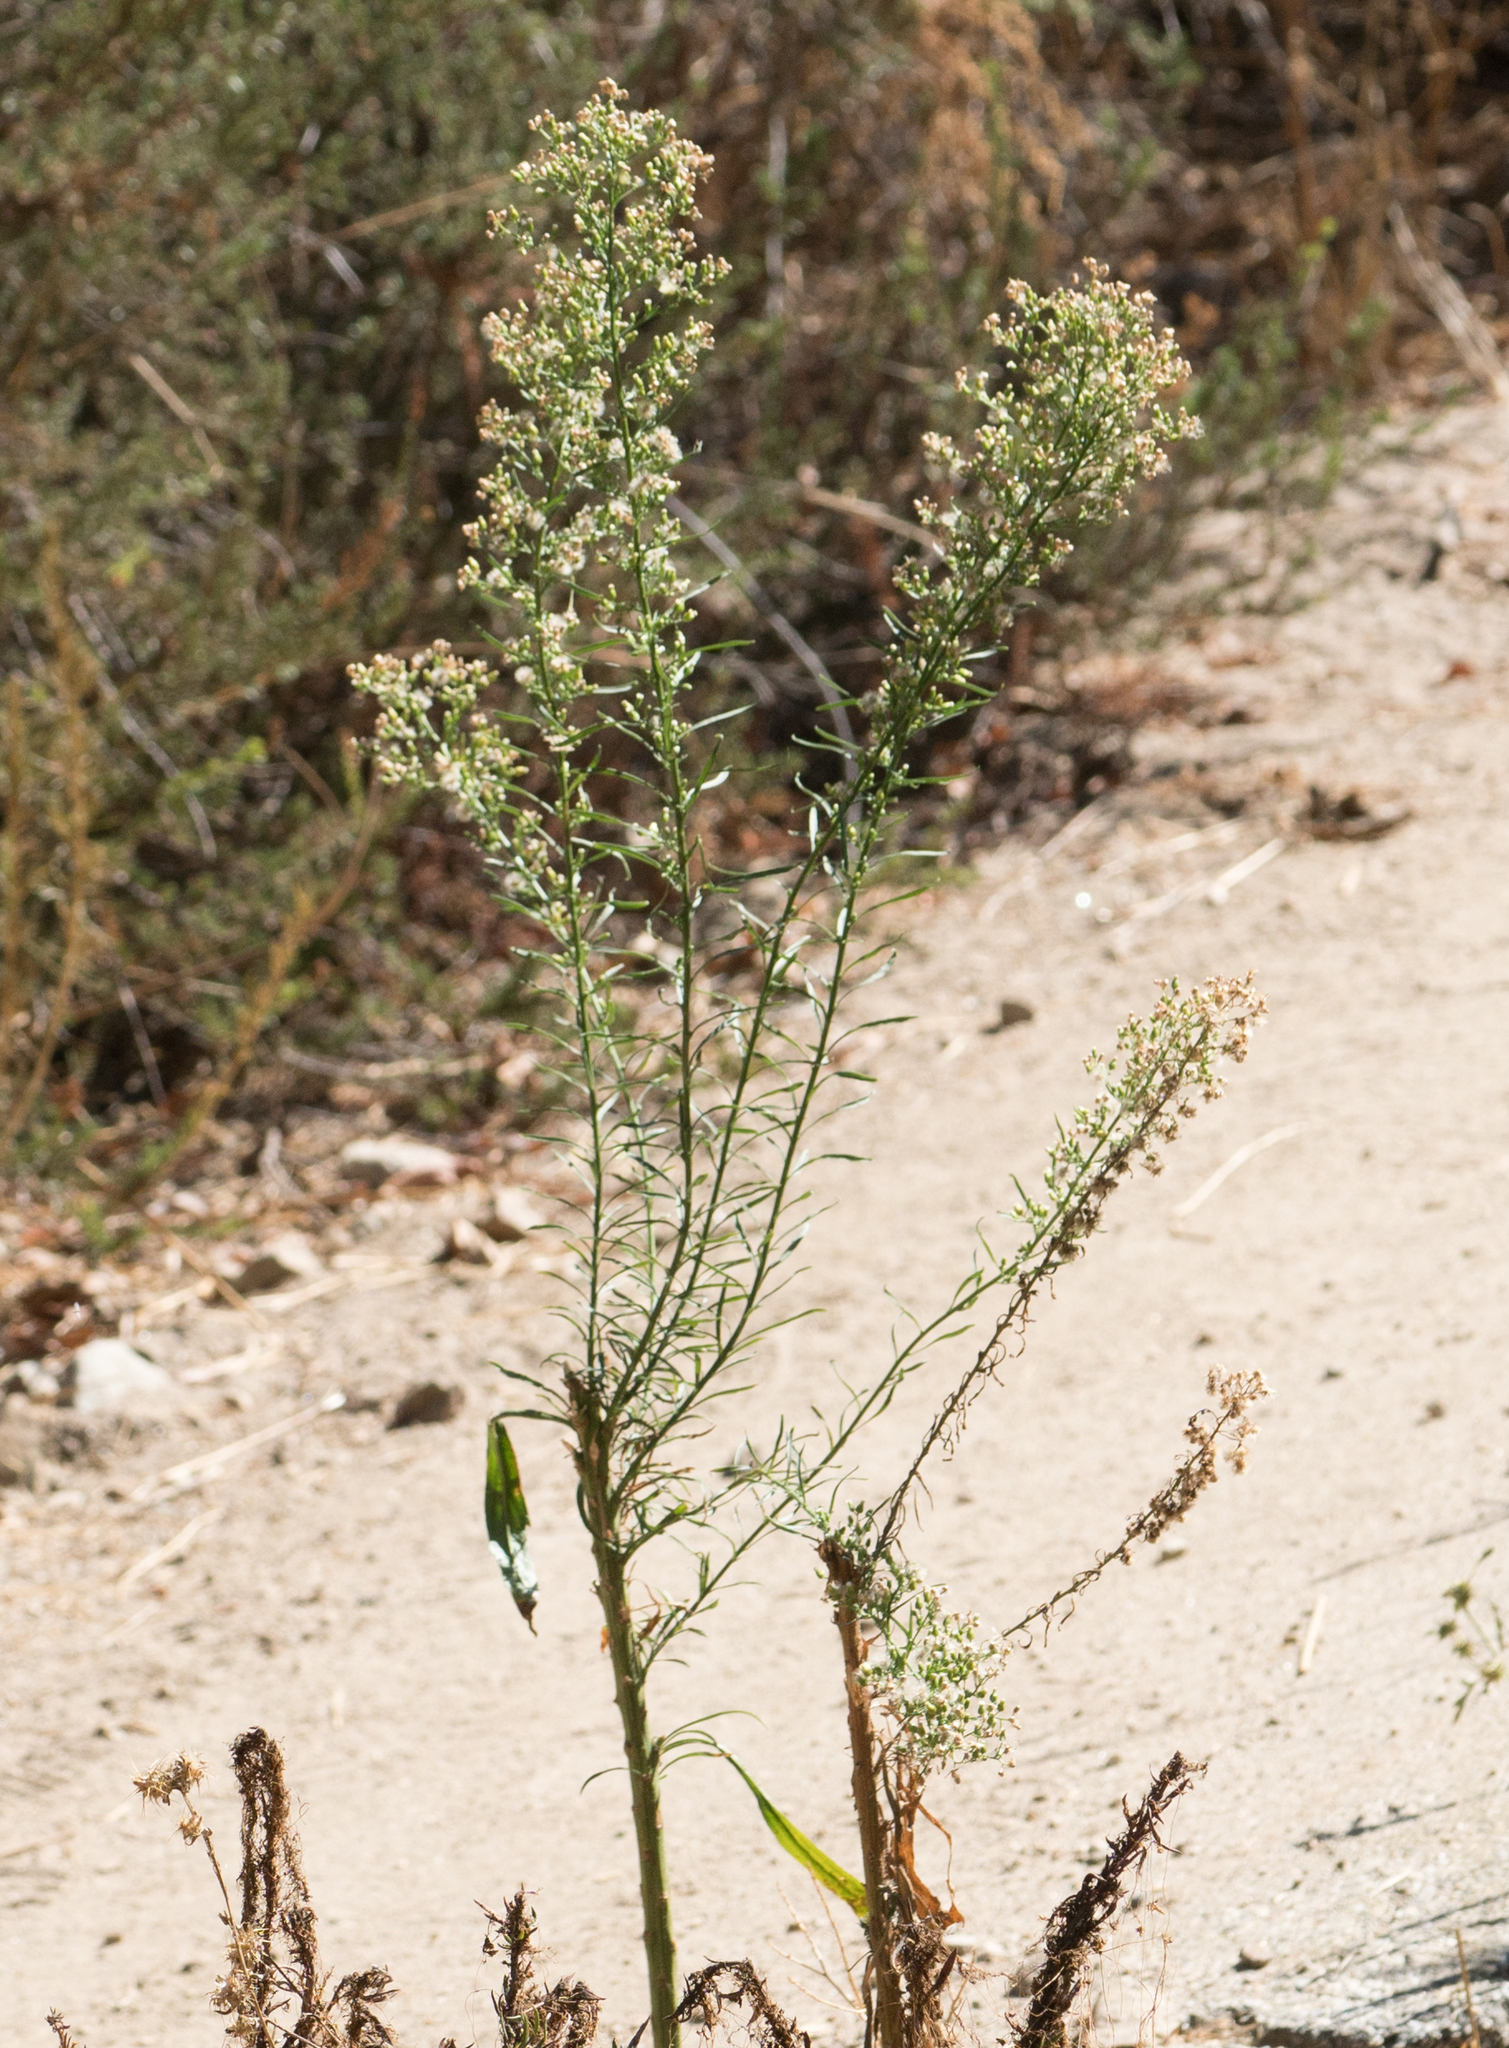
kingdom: Plantae
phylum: Tracheophyta
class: Magnoliopsida
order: Asterales
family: Asteraceae
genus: Erigeron
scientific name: Erigeron canadensis
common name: Canadian fleabane
